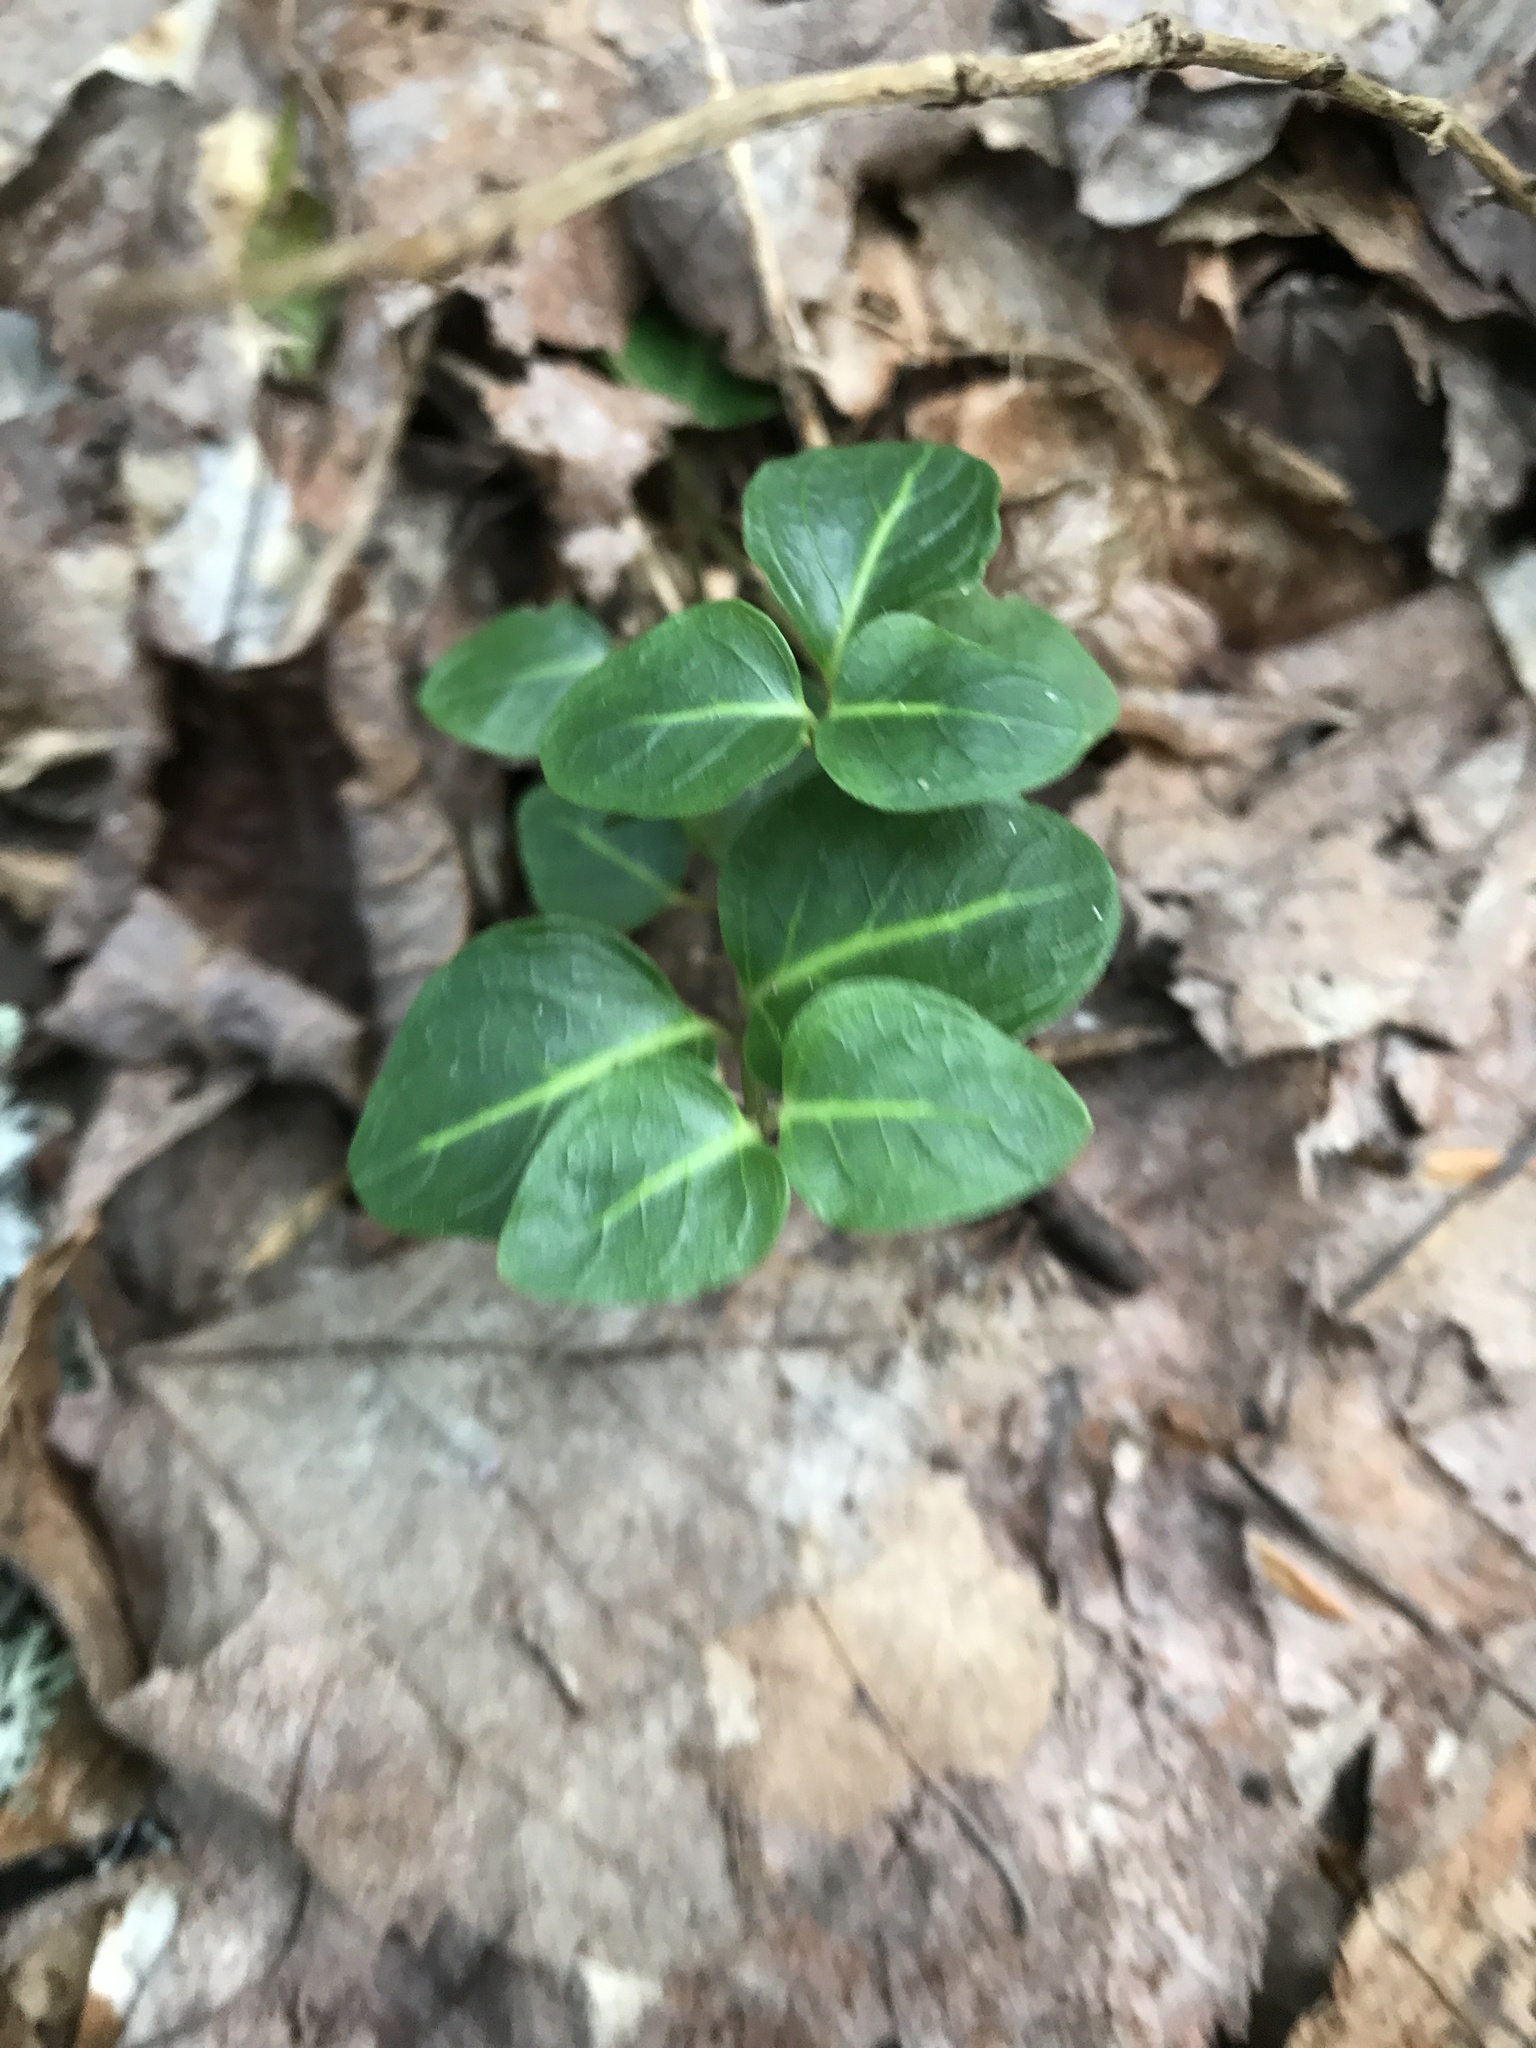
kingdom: Plantae
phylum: Tracheophyta
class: Magnoliopsida
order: Gentianales
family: Rubiaceae
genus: Mitchella
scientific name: Mitchella repens
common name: Partridge-berry
